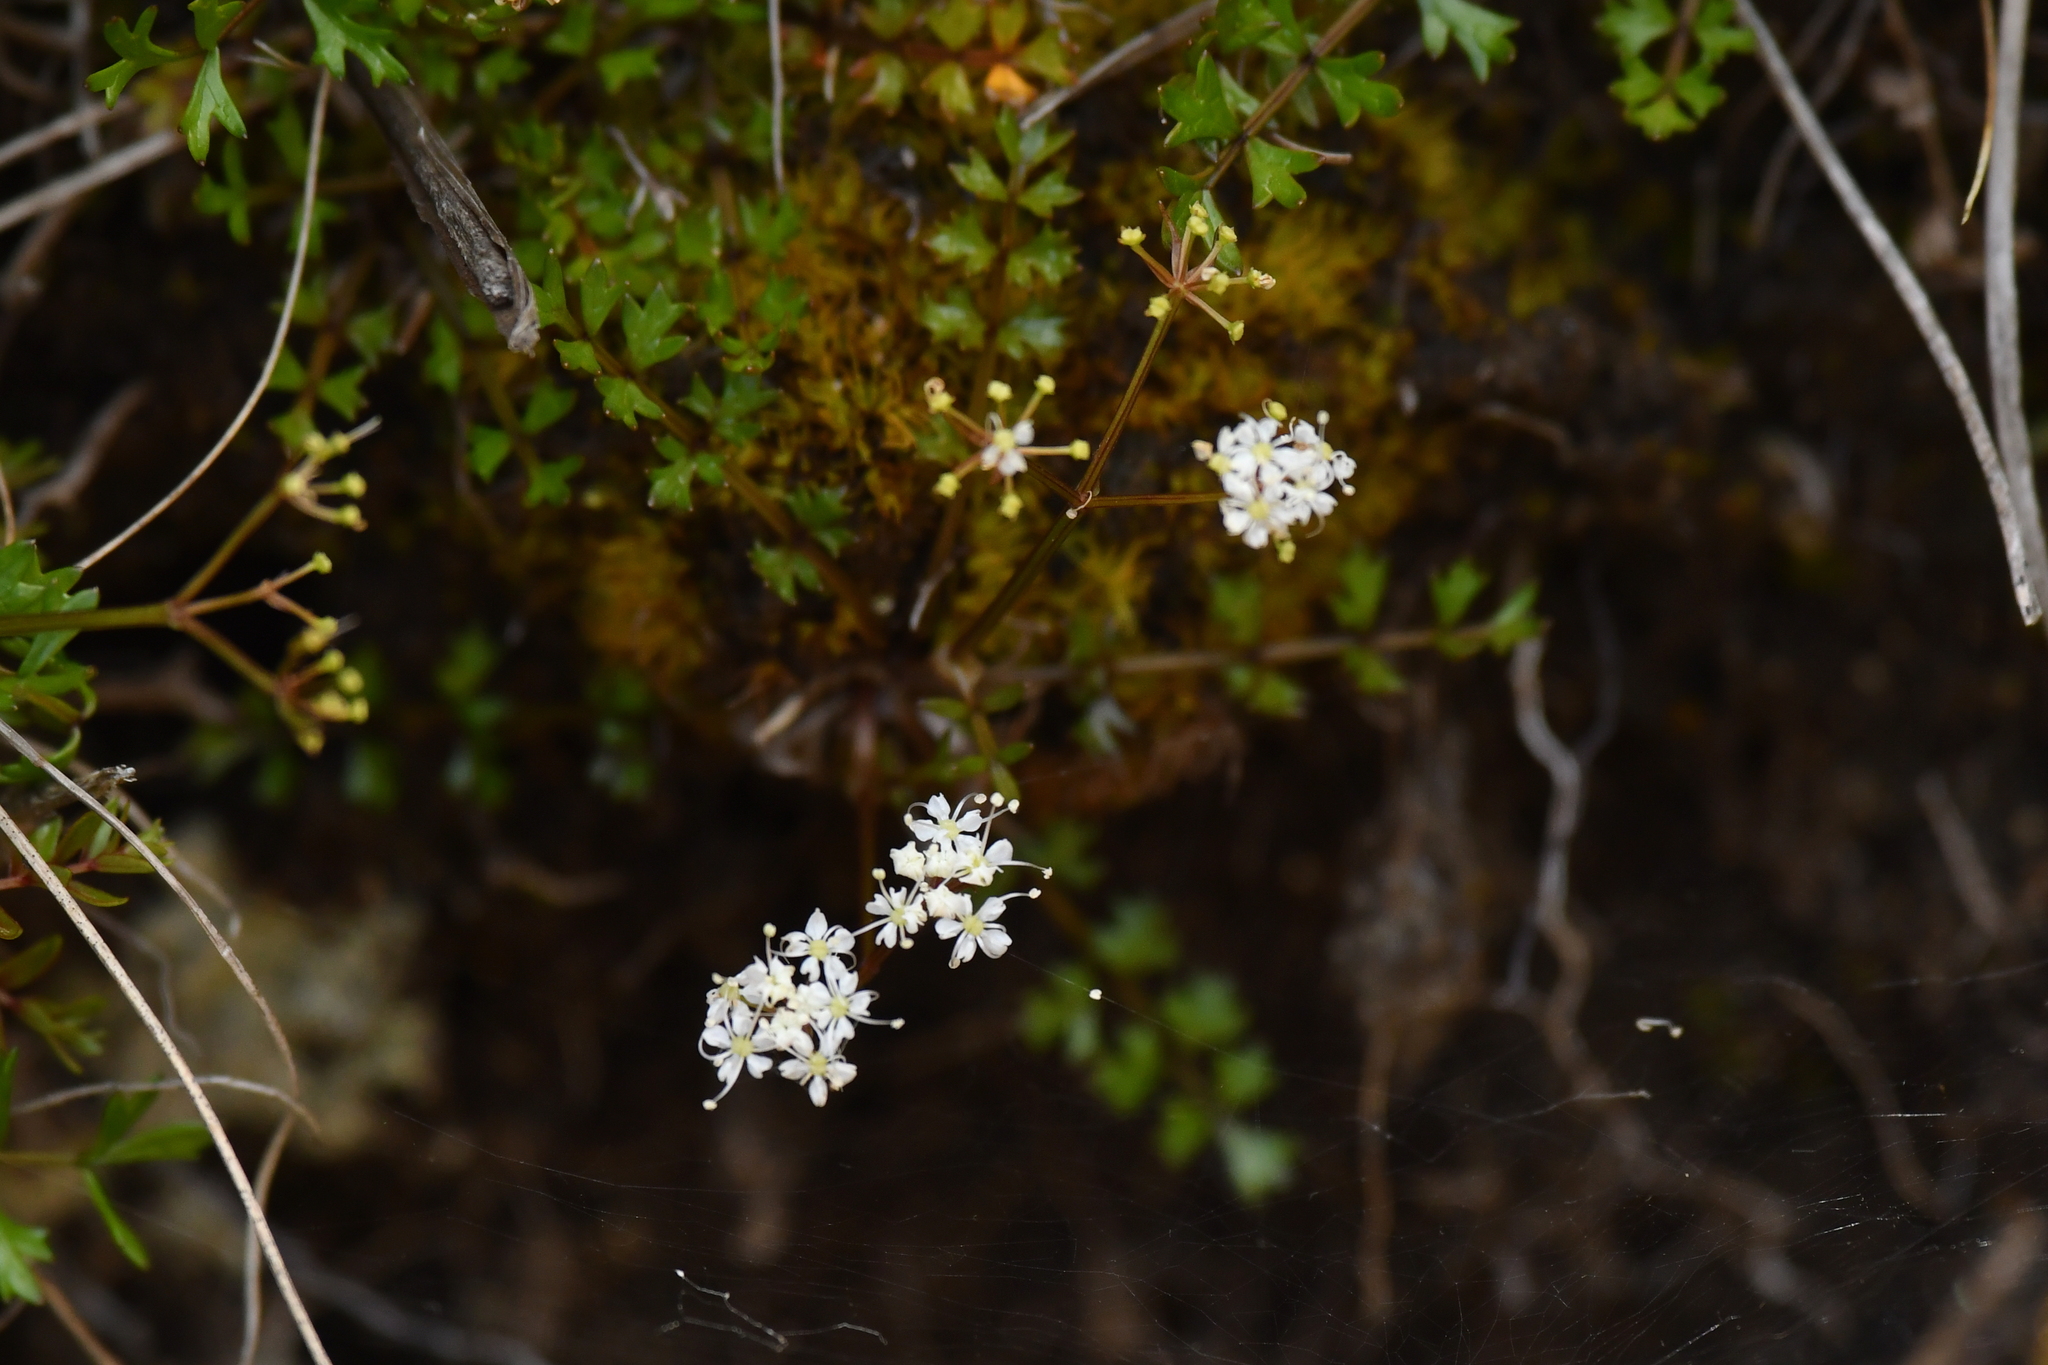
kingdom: Plantae
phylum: Tracheophyta
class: Magnoliopsida
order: Apiales
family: Apiaceae
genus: Gingidia
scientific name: Gingidia decipiens
